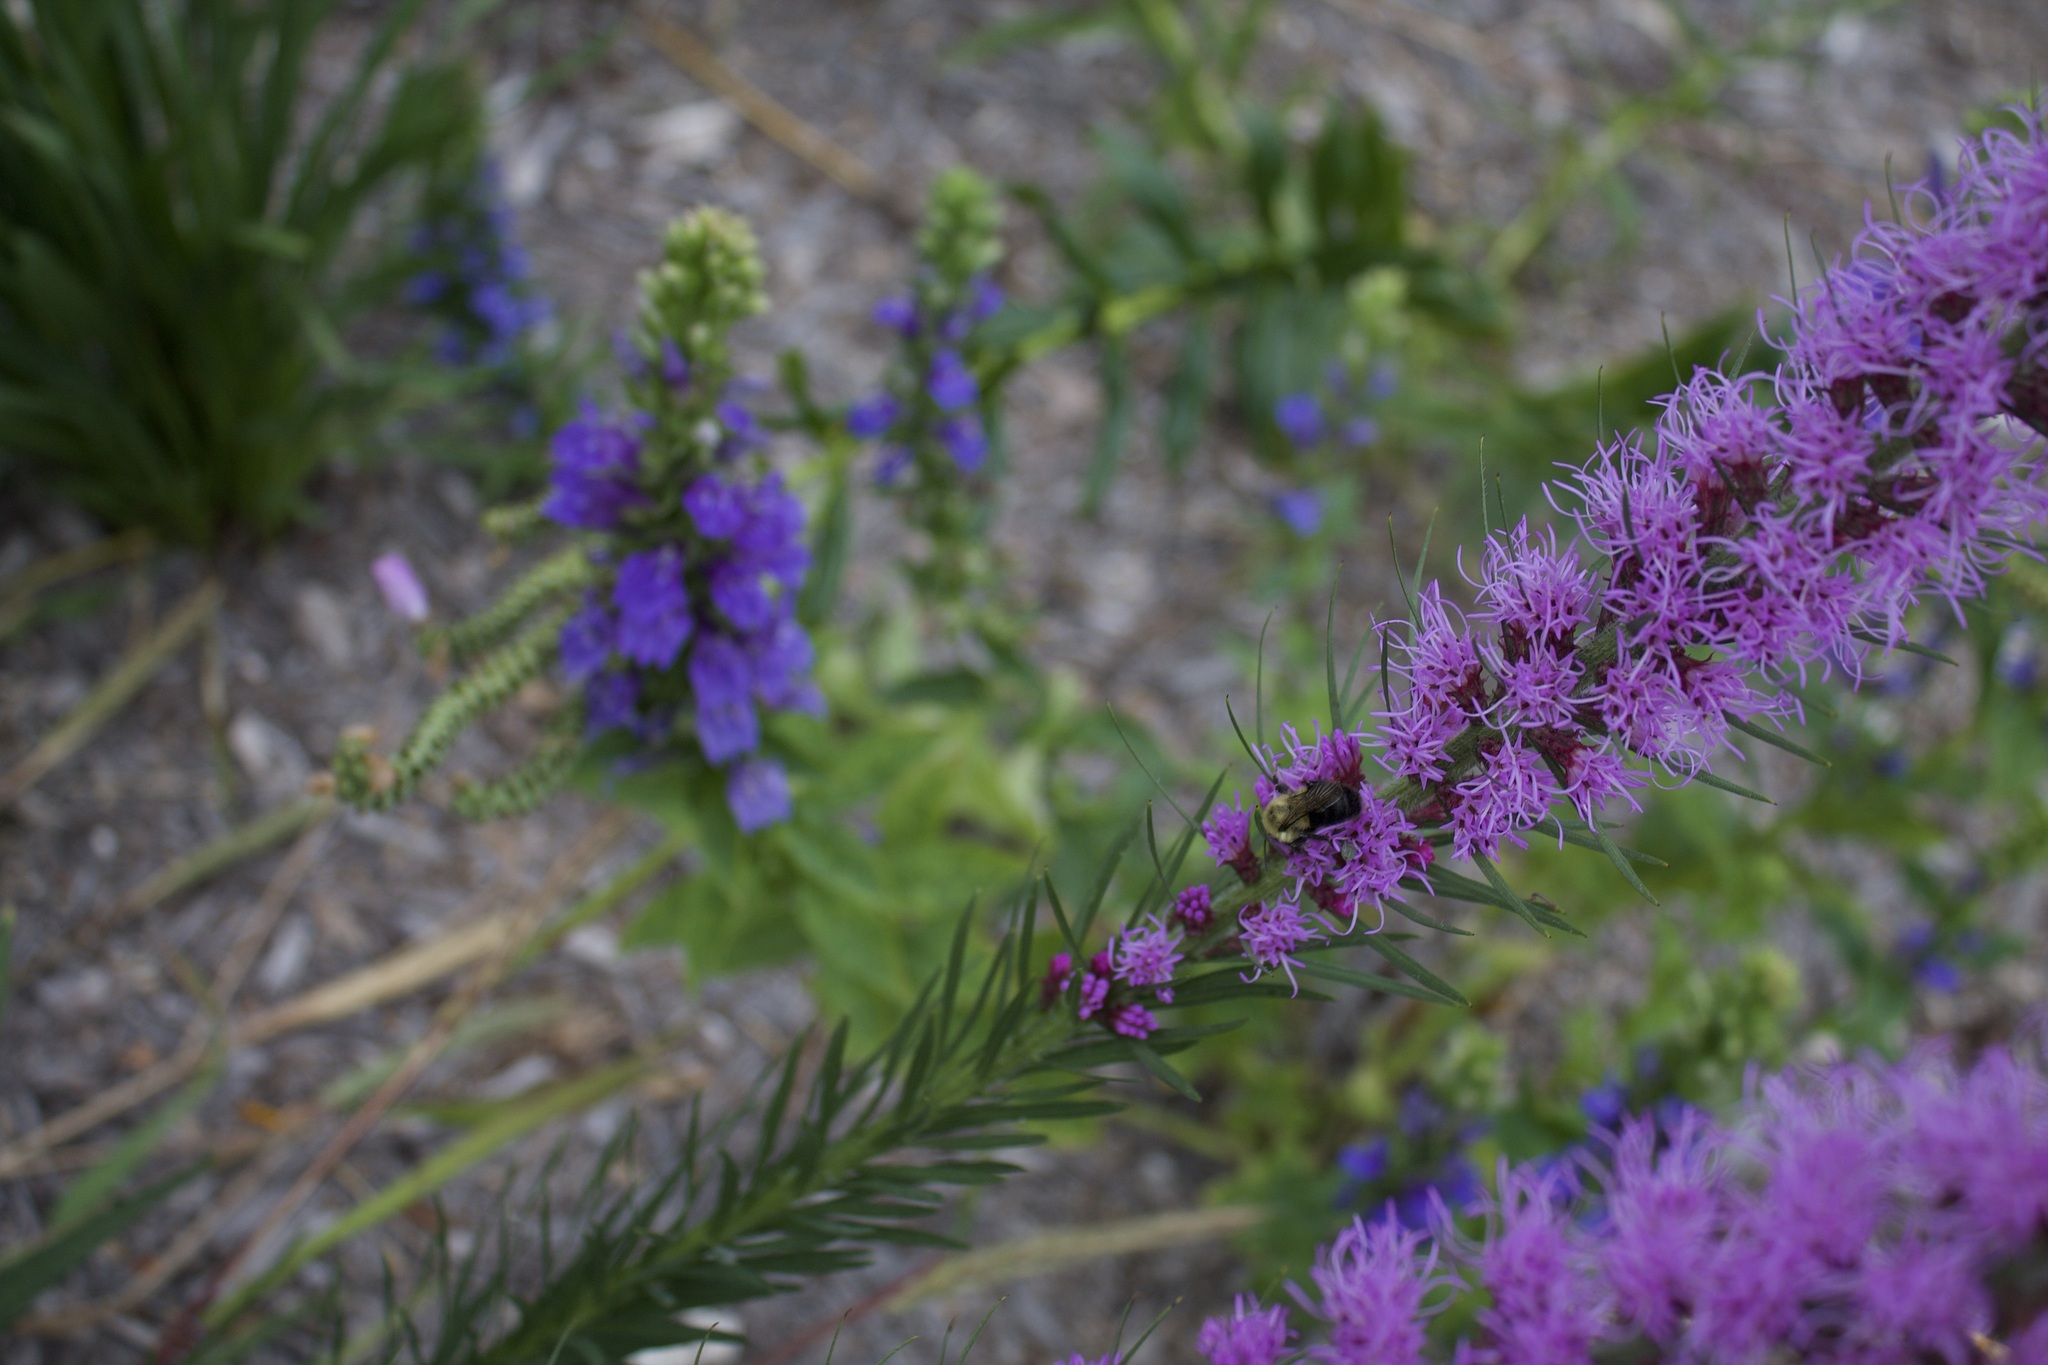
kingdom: Animalia
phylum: Arthropoda
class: Insecta
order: Hymenoptera
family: Apidae
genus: Bombus
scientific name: Bombus impatiens
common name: Common eastern bumble bee
